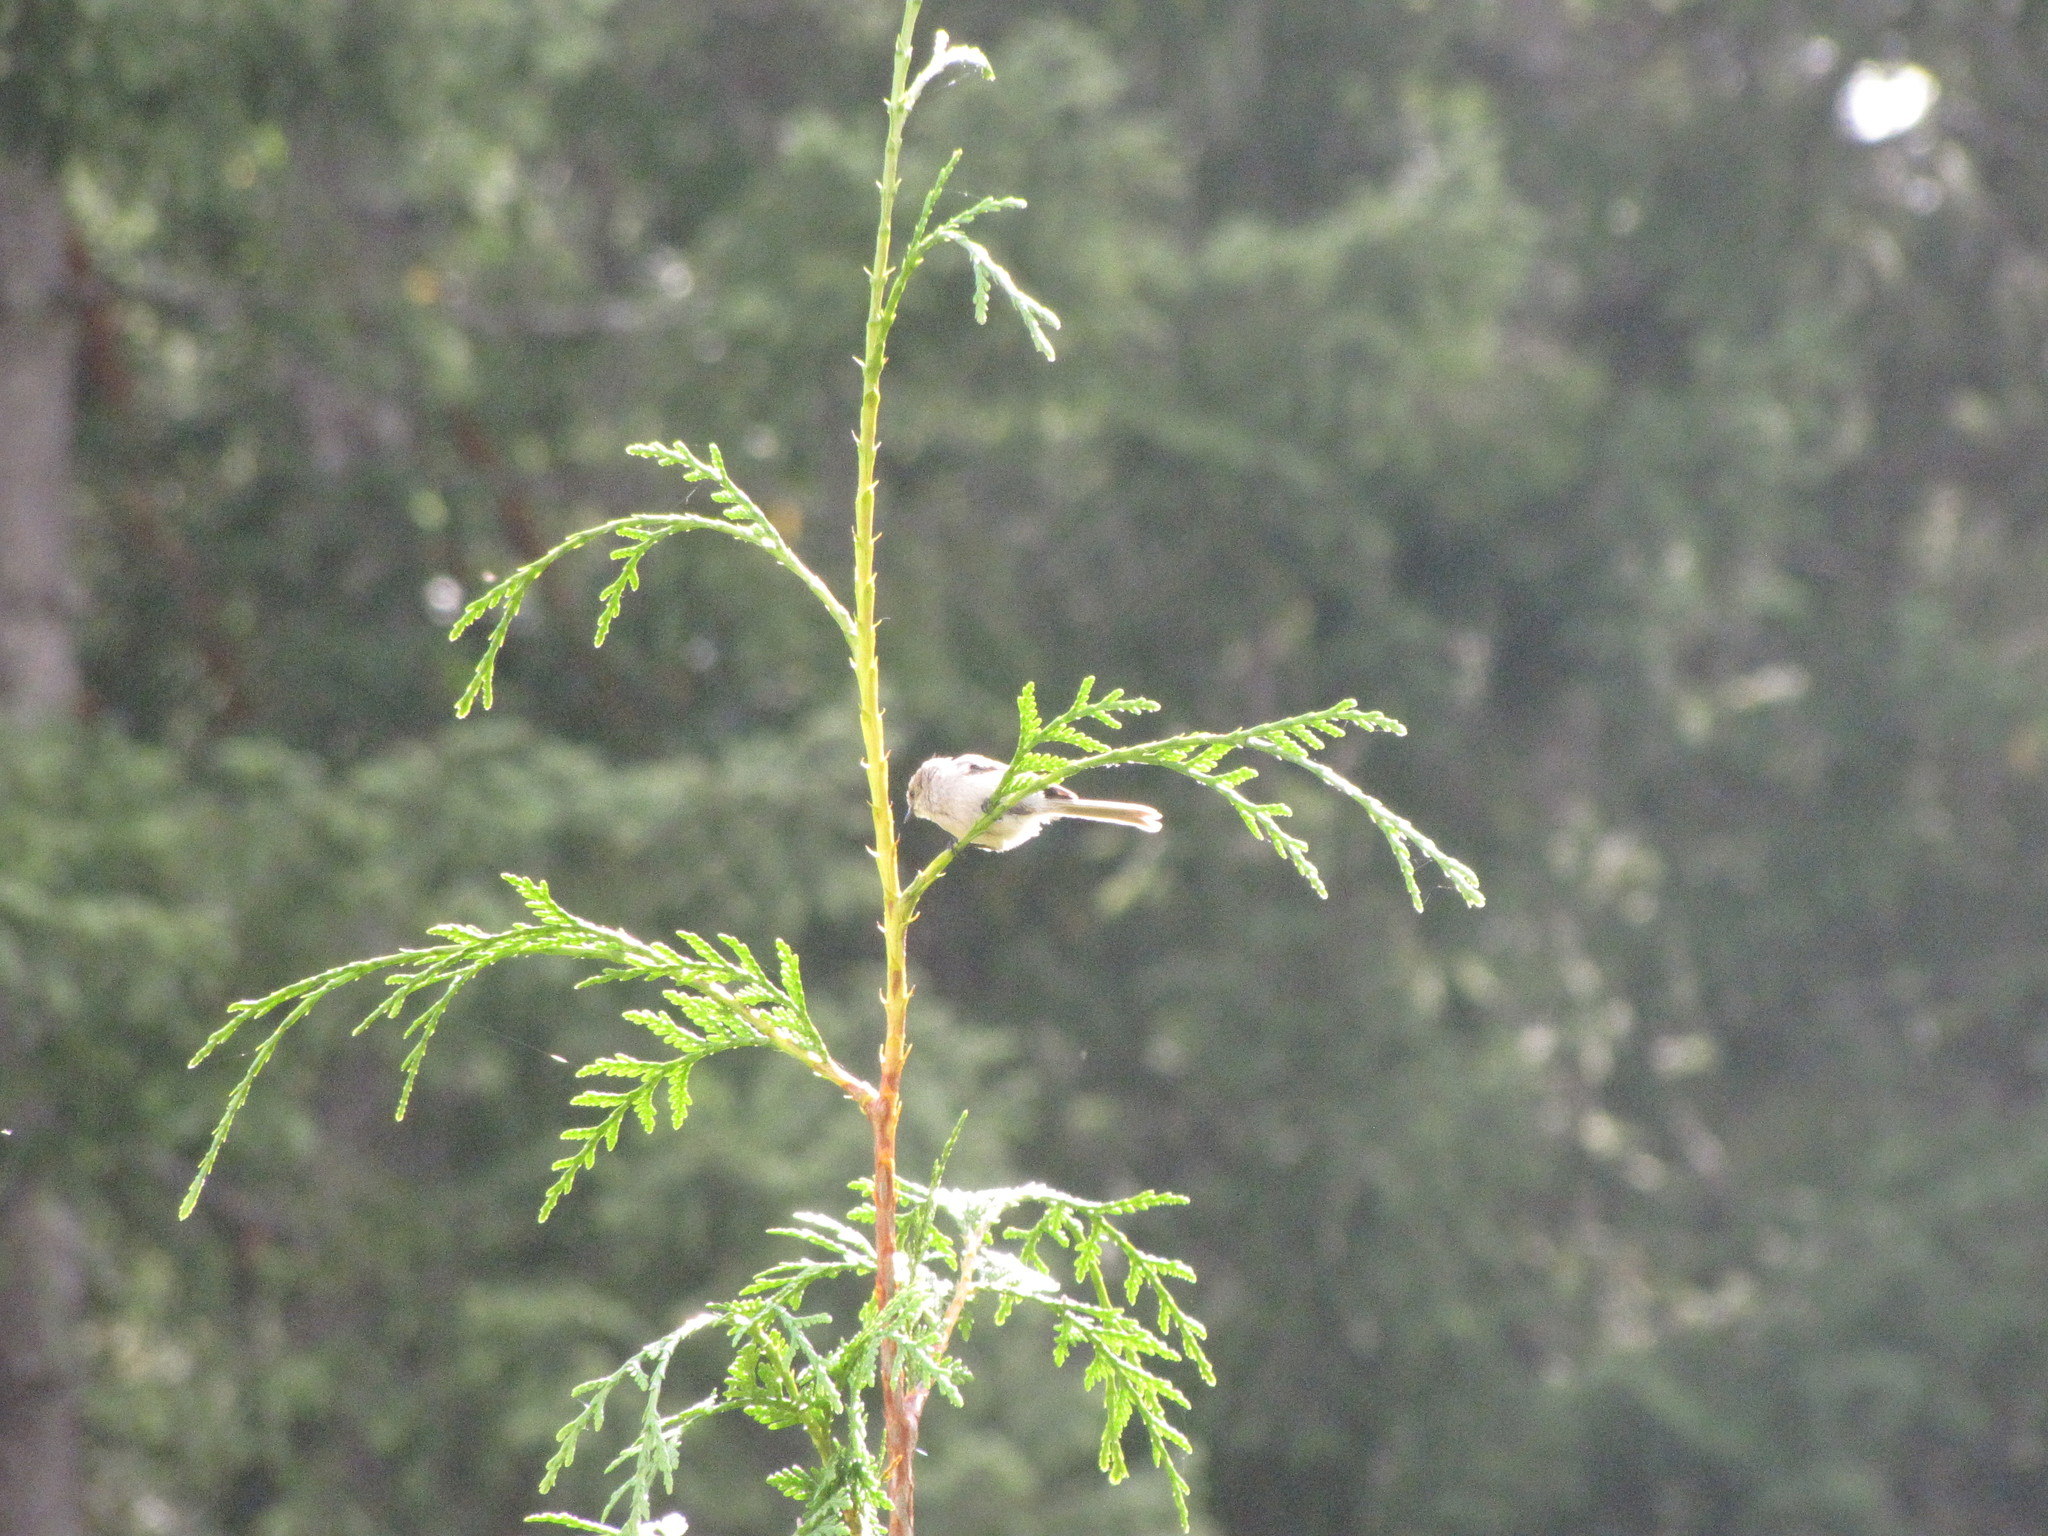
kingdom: Animalia
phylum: Chordata
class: Aves
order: Passeriformes
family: Aegithalidae
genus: Psaltriparus
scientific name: Psaltriparus minimus
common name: American bushtit
